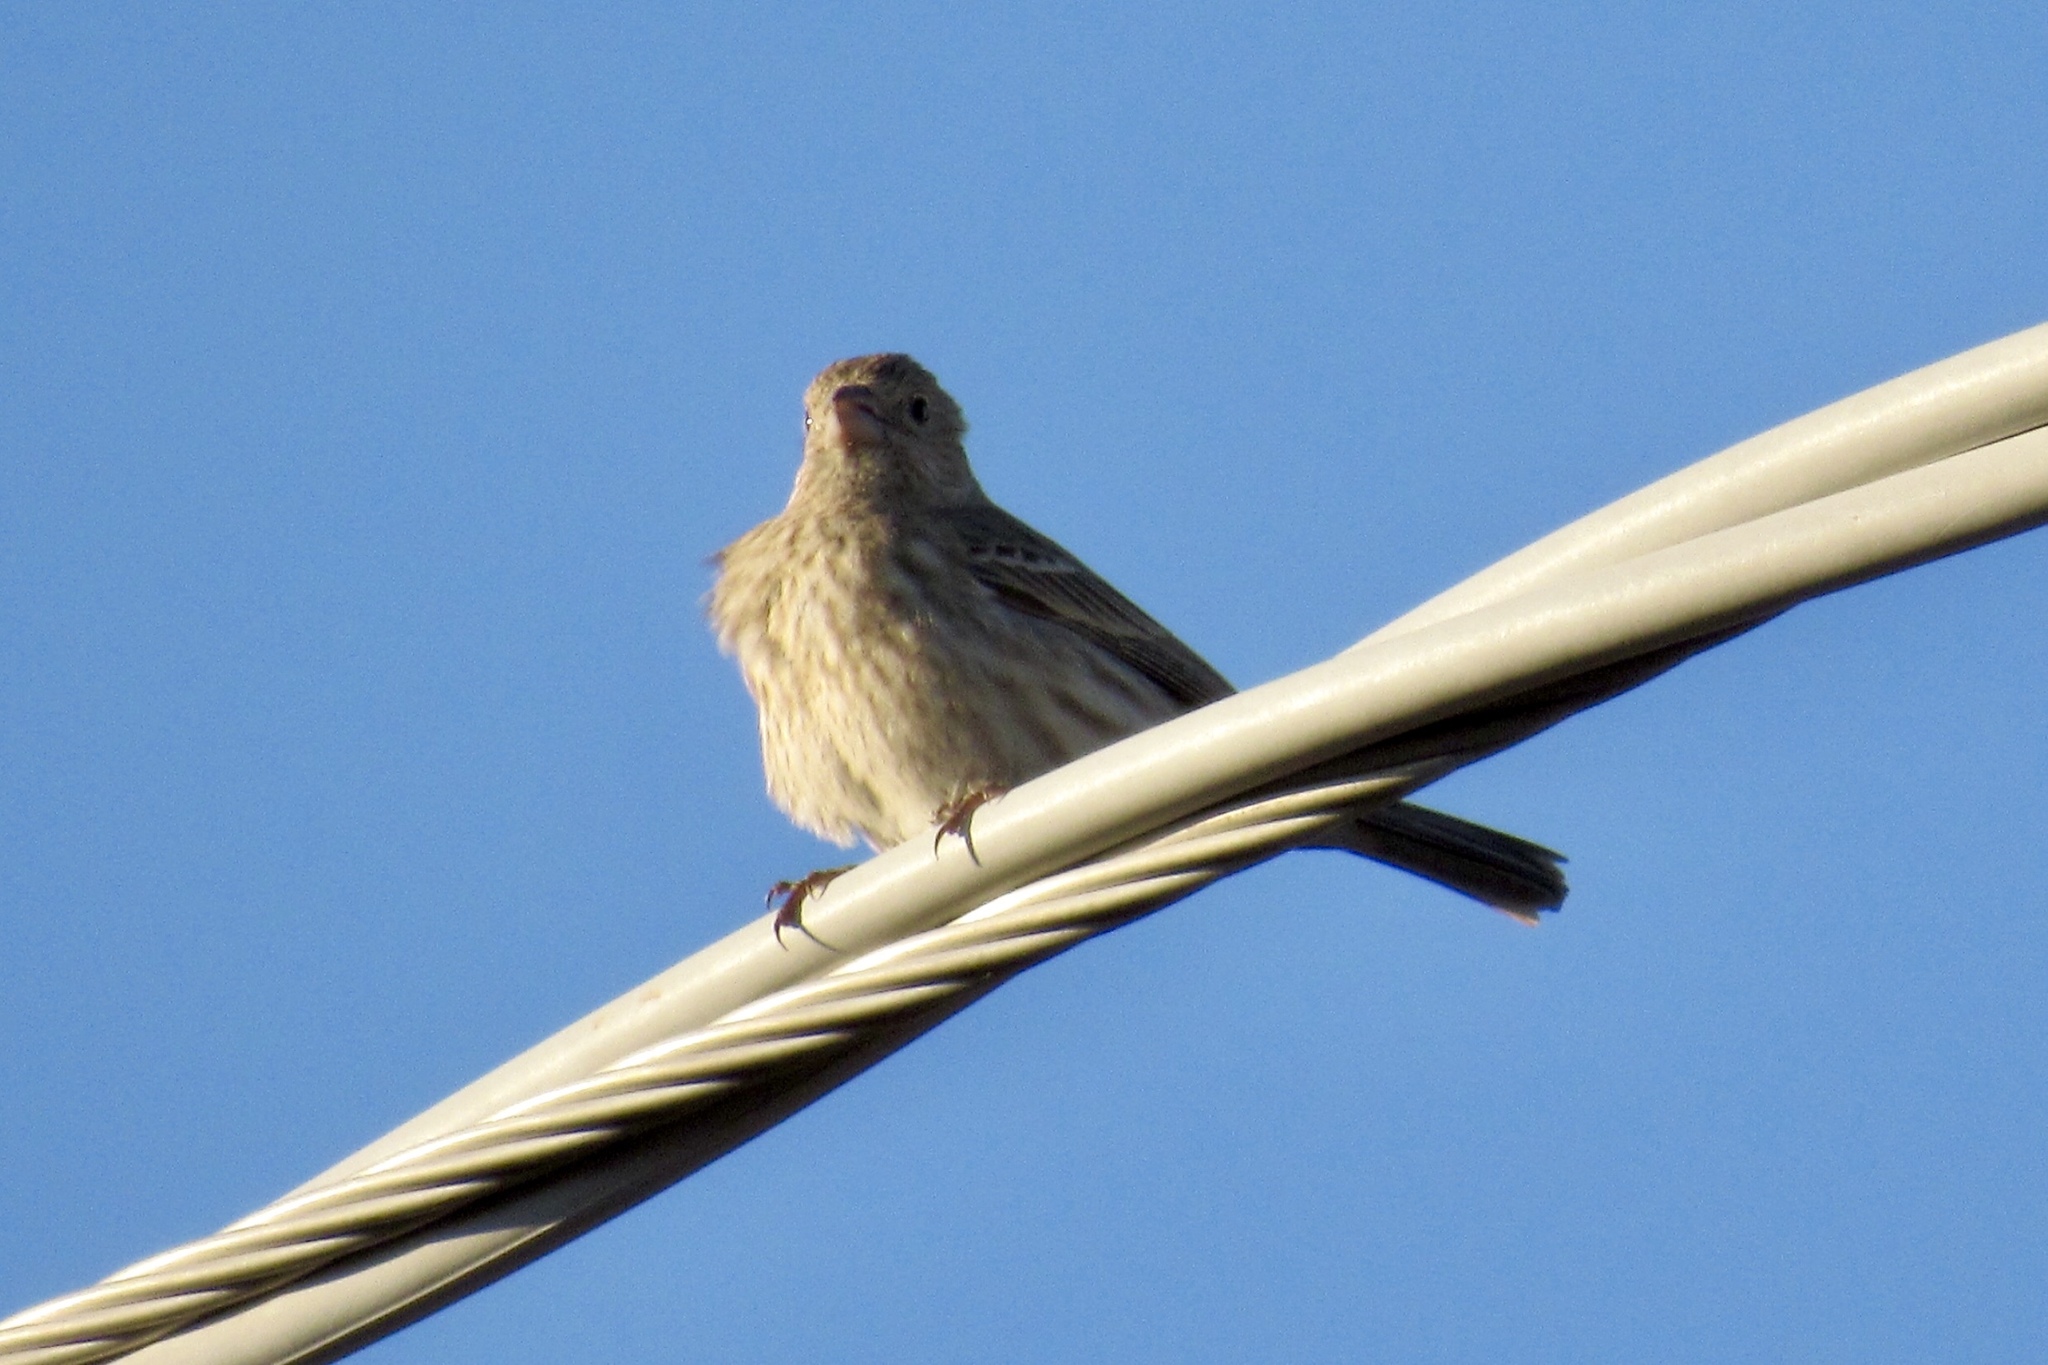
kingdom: Animalia
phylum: Chordata
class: Aves
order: Passeriformes
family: Fringillidae
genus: Haemorhous
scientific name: Haemorhous mexicanus
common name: House finch
